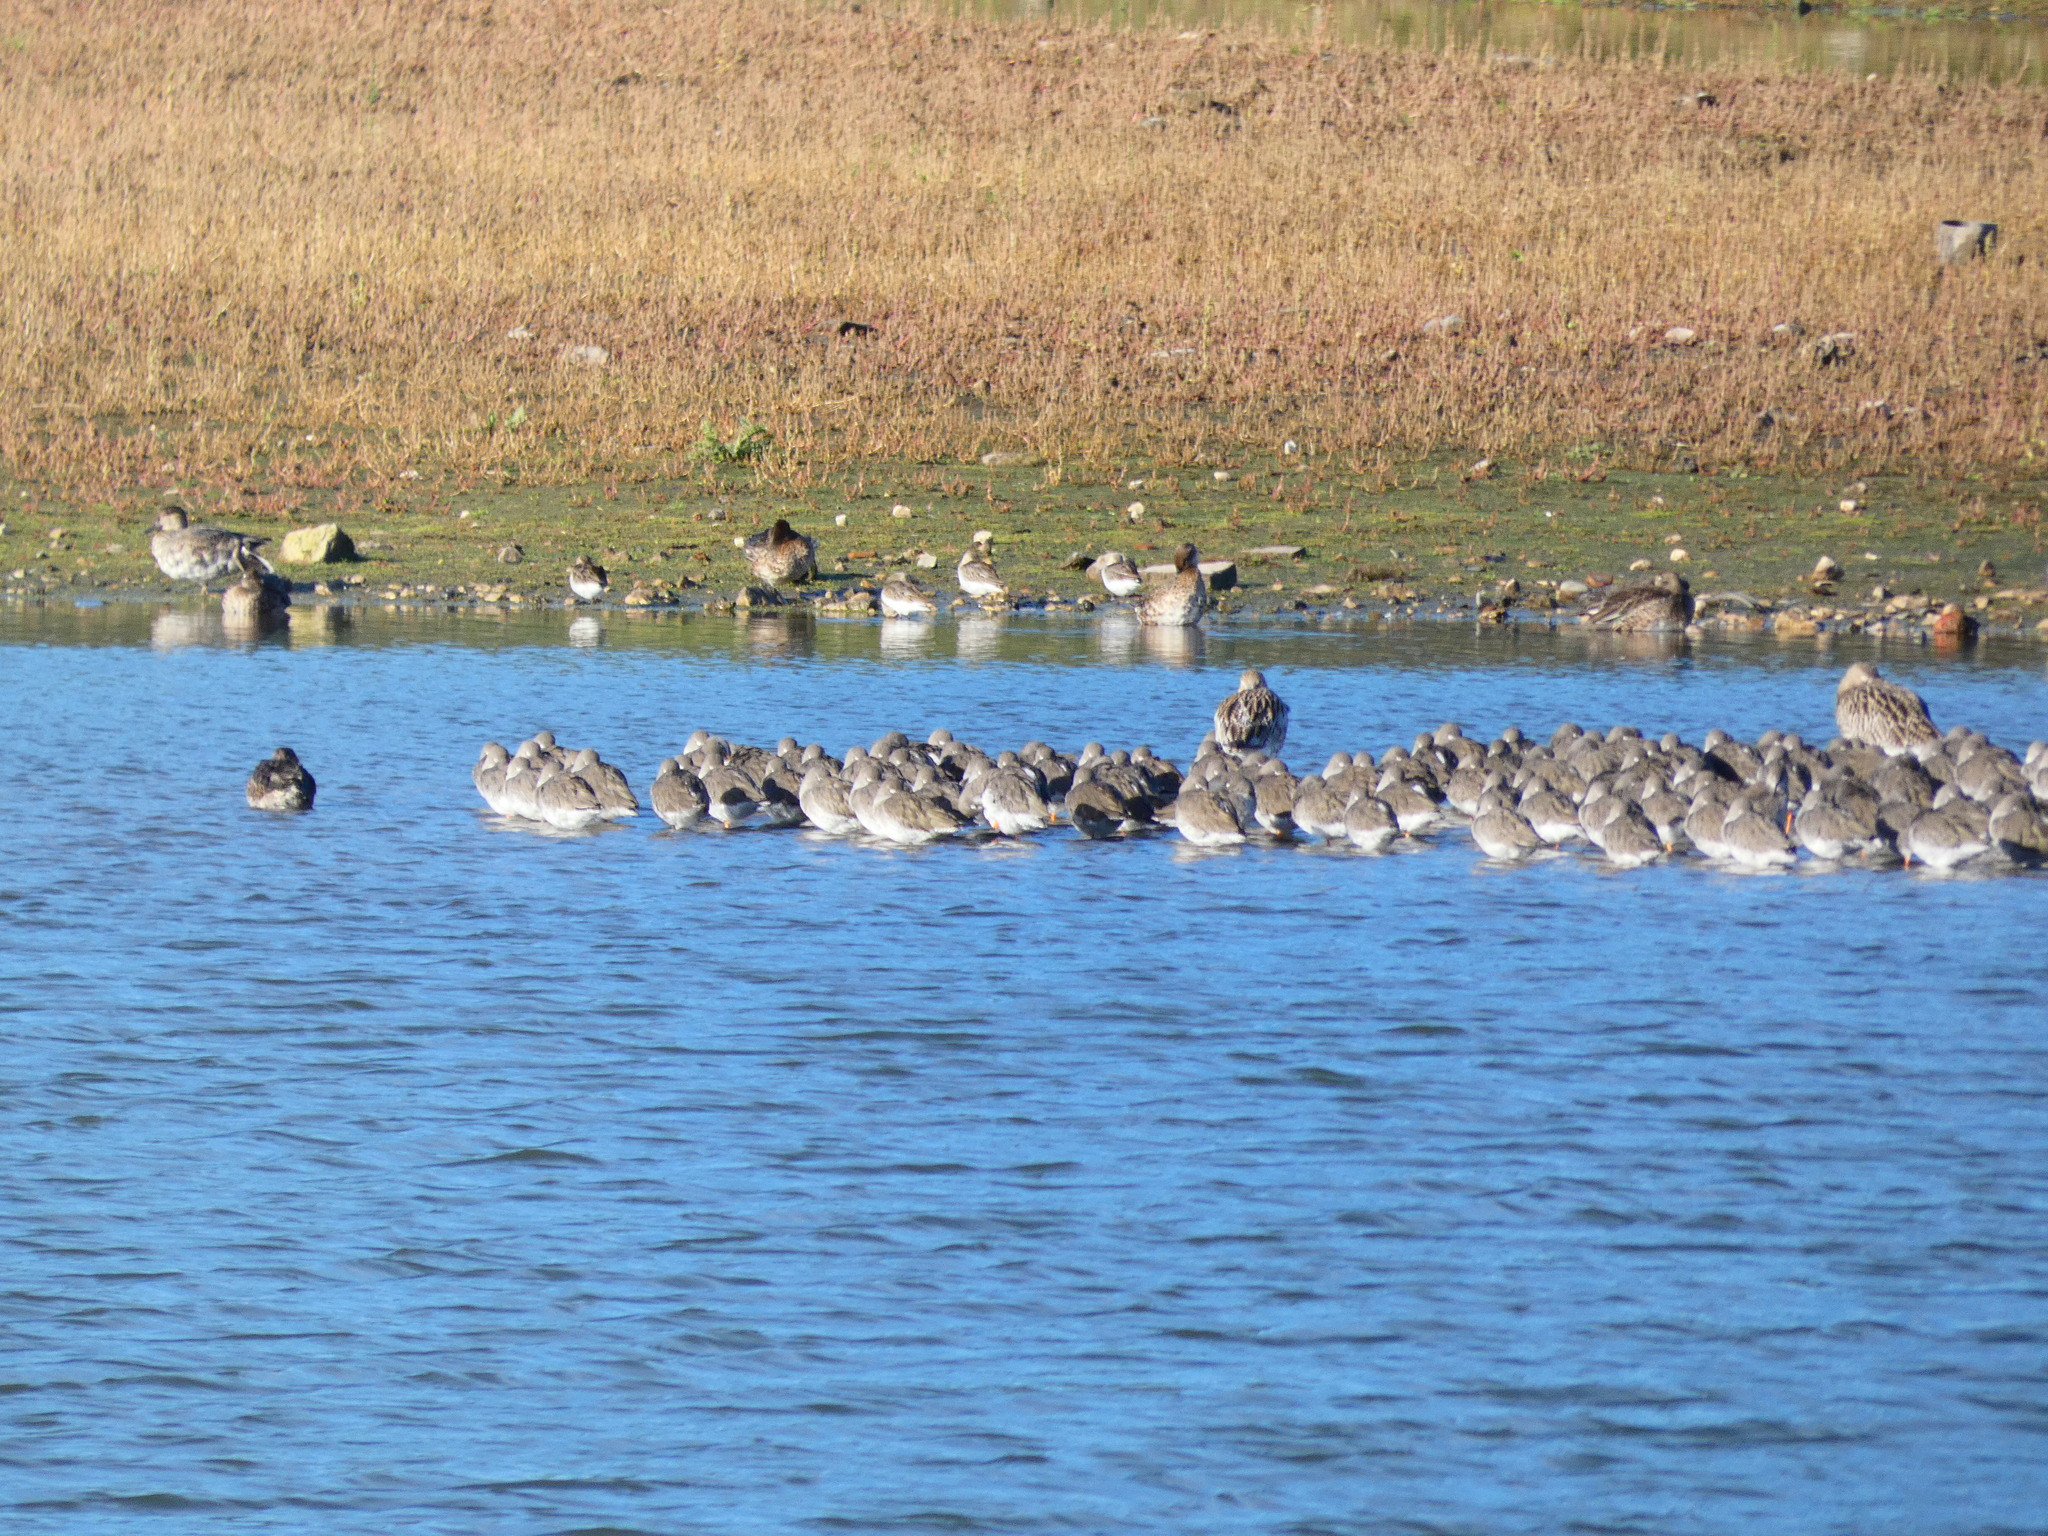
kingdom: Animalia
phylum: Chordata
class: Aves
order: Charadriiformes
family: Scolopacidae
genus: Tringa
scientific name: Tringa totanus
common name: Common redshank
